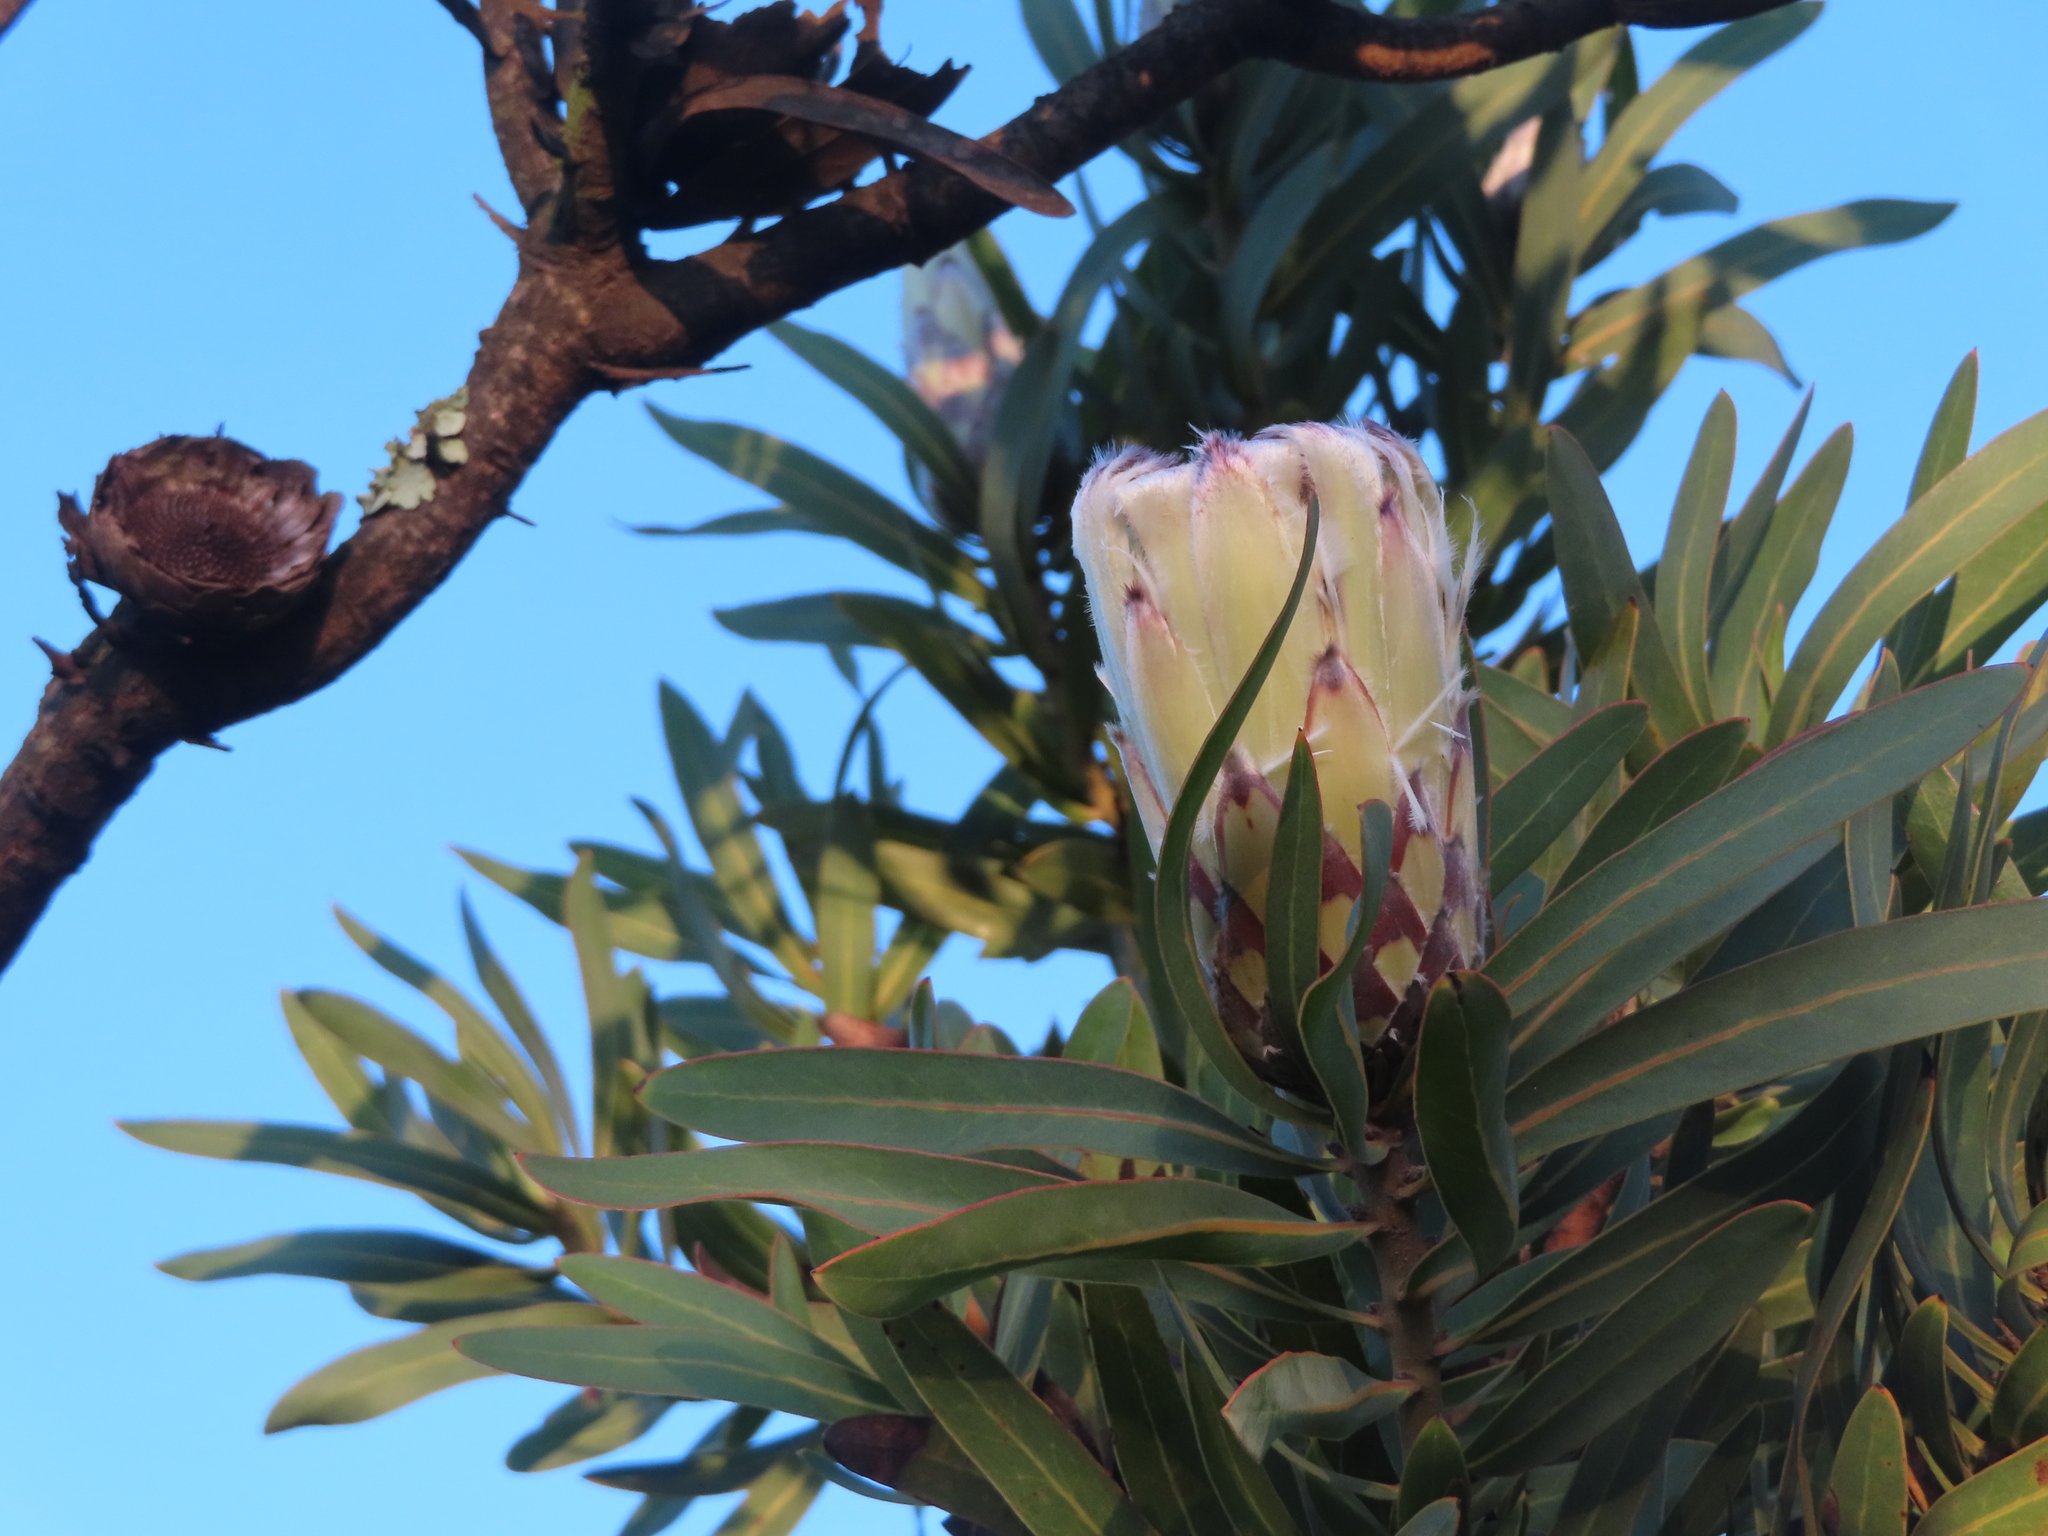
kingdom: Plantae
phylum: Tracheophyta
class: Magnoliopsida
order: Proteales
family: Proteaceae
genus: Protea
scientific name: Protea
